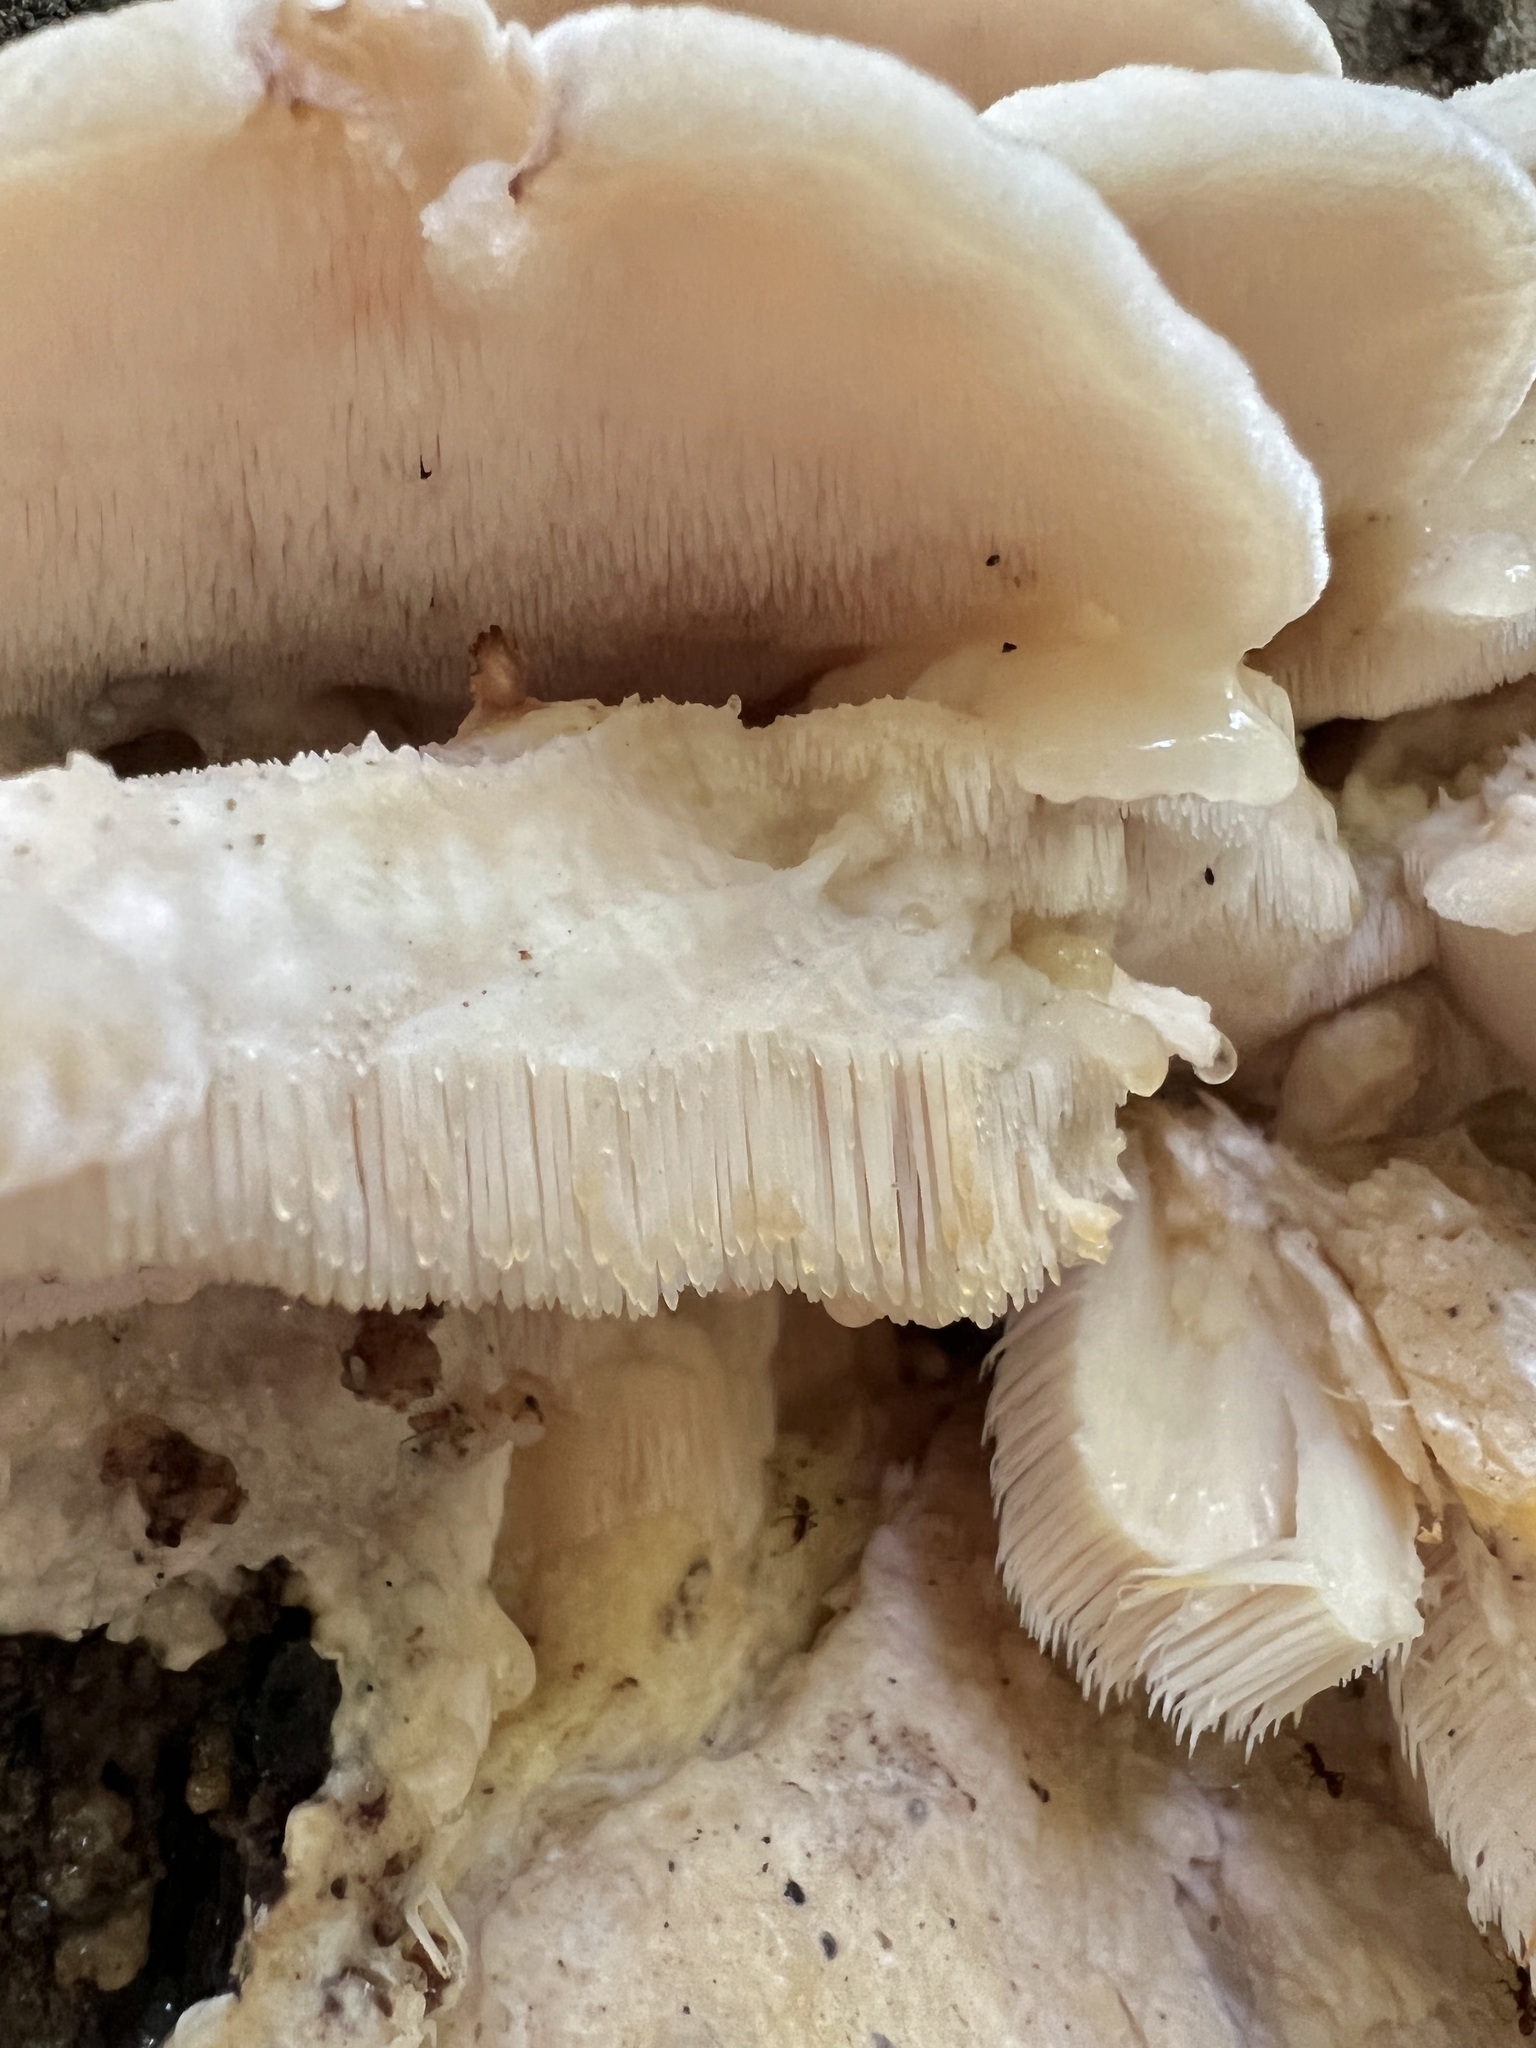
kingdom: Fungi
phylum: Basidiomycota
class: Agaricomycetes
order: Polyporales
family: Meruliaceae
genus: Climacodon
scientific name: Climacodon septentrionalis
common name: Northern tooth
